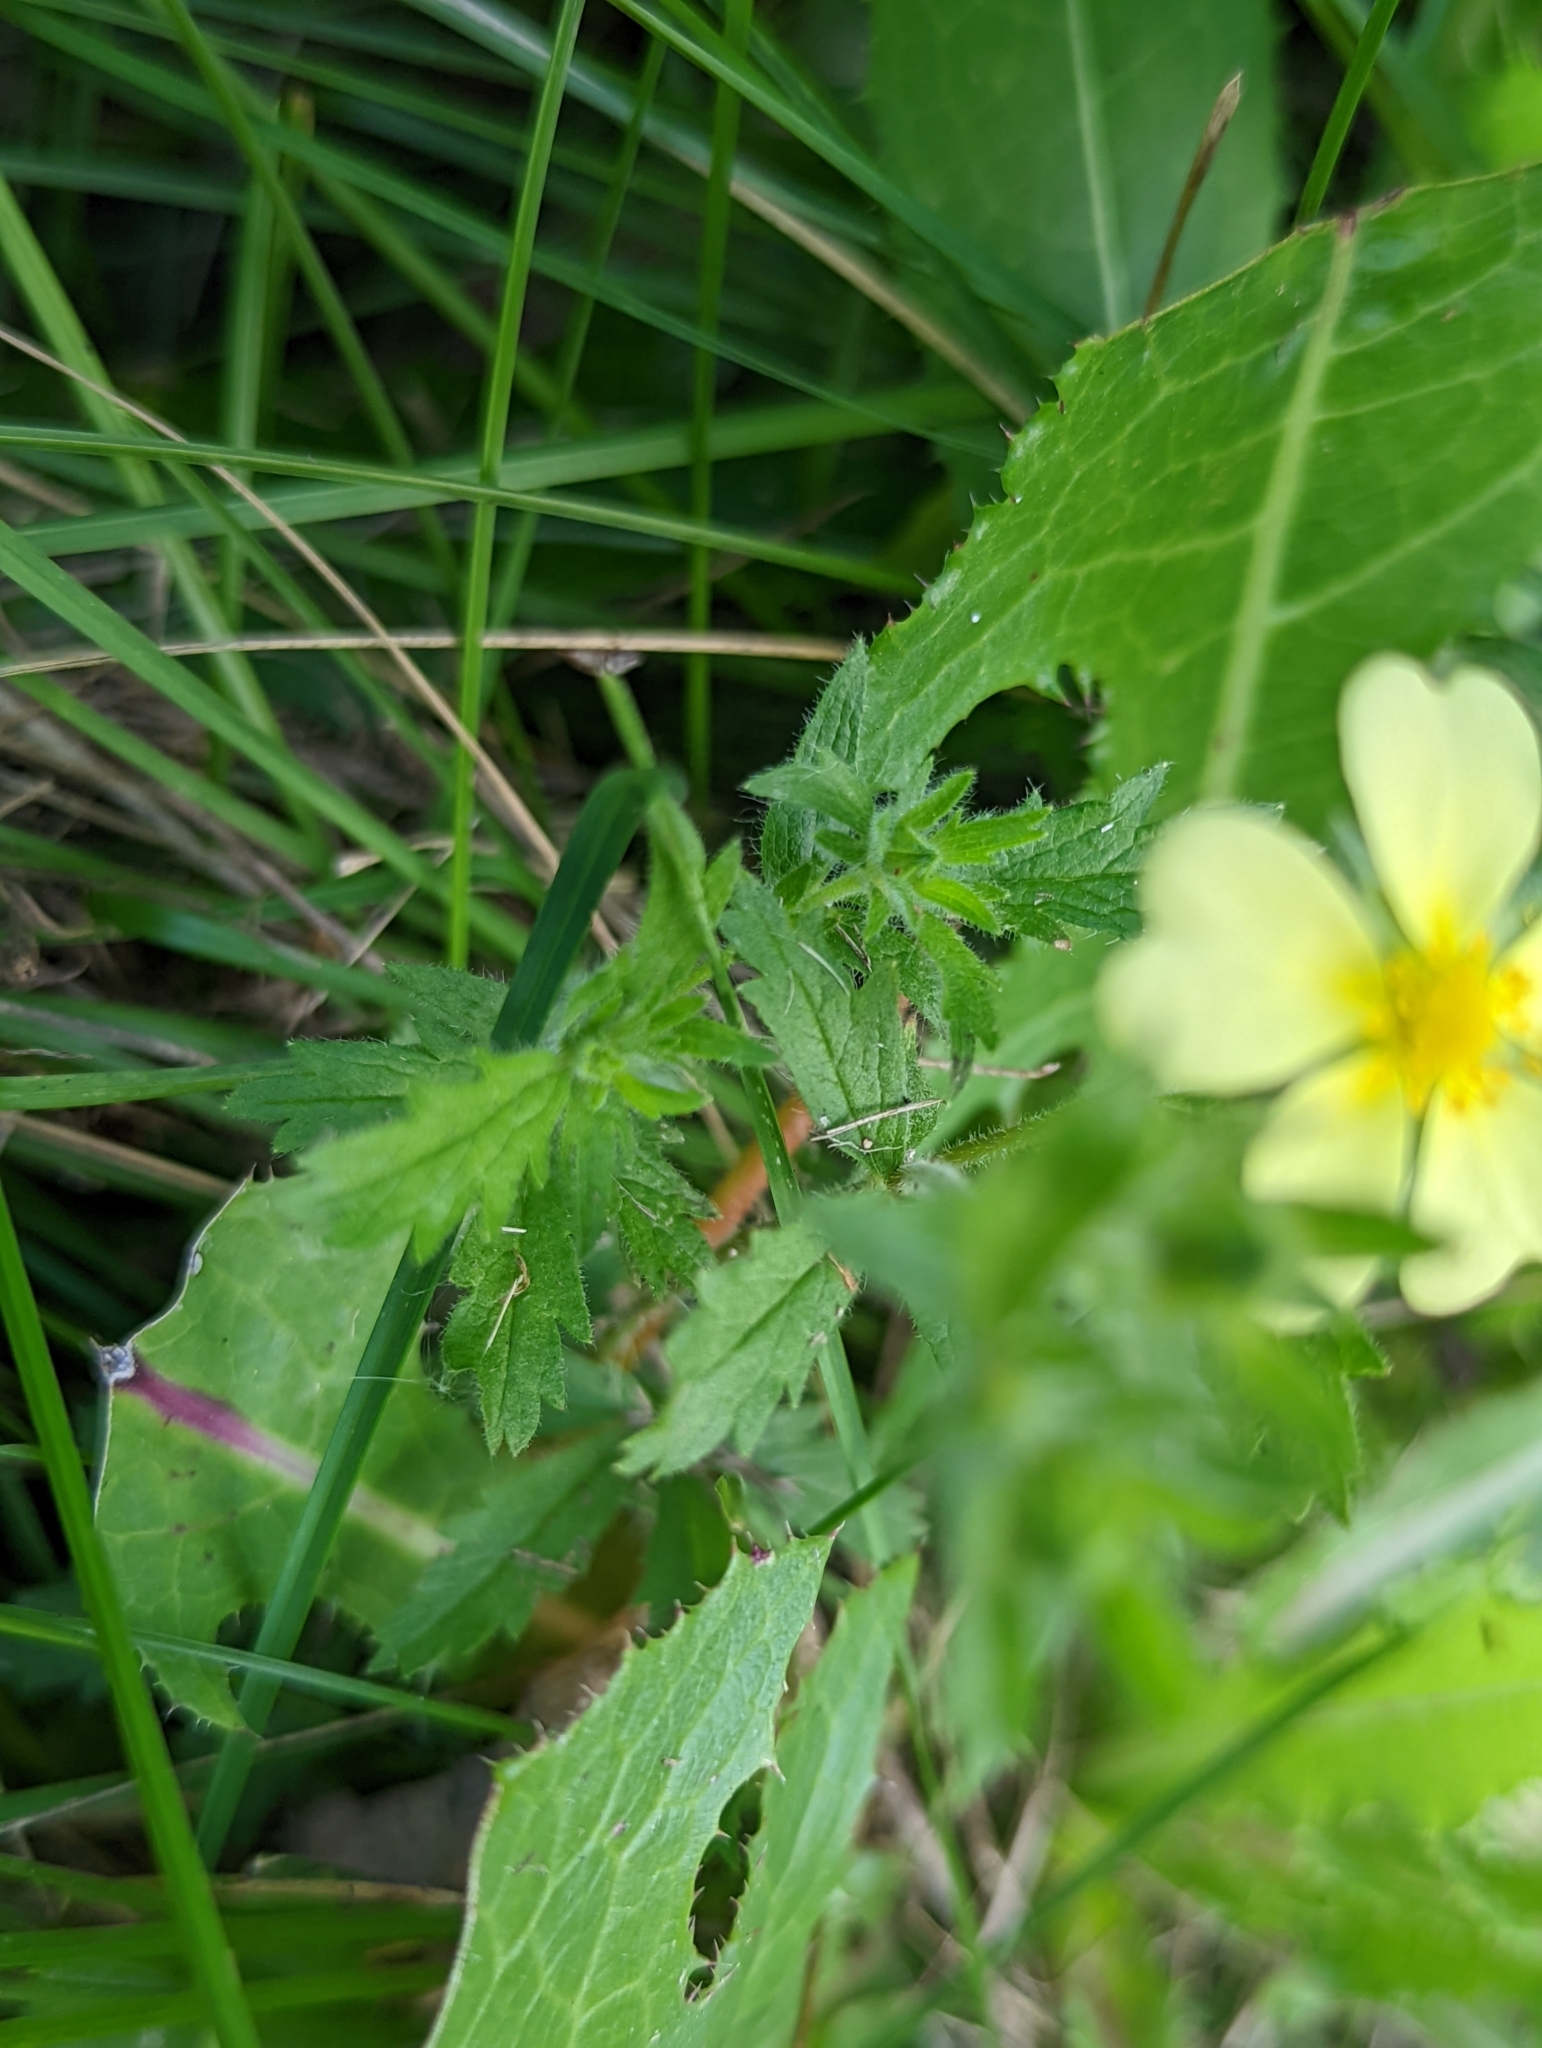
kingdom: Plantae
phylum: Tracheophyta
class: Magnoliopsida
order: Rosales
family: Rosaceae
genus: Potentilla
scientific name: Potentilla recta
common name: Sulphur cinquefoil
